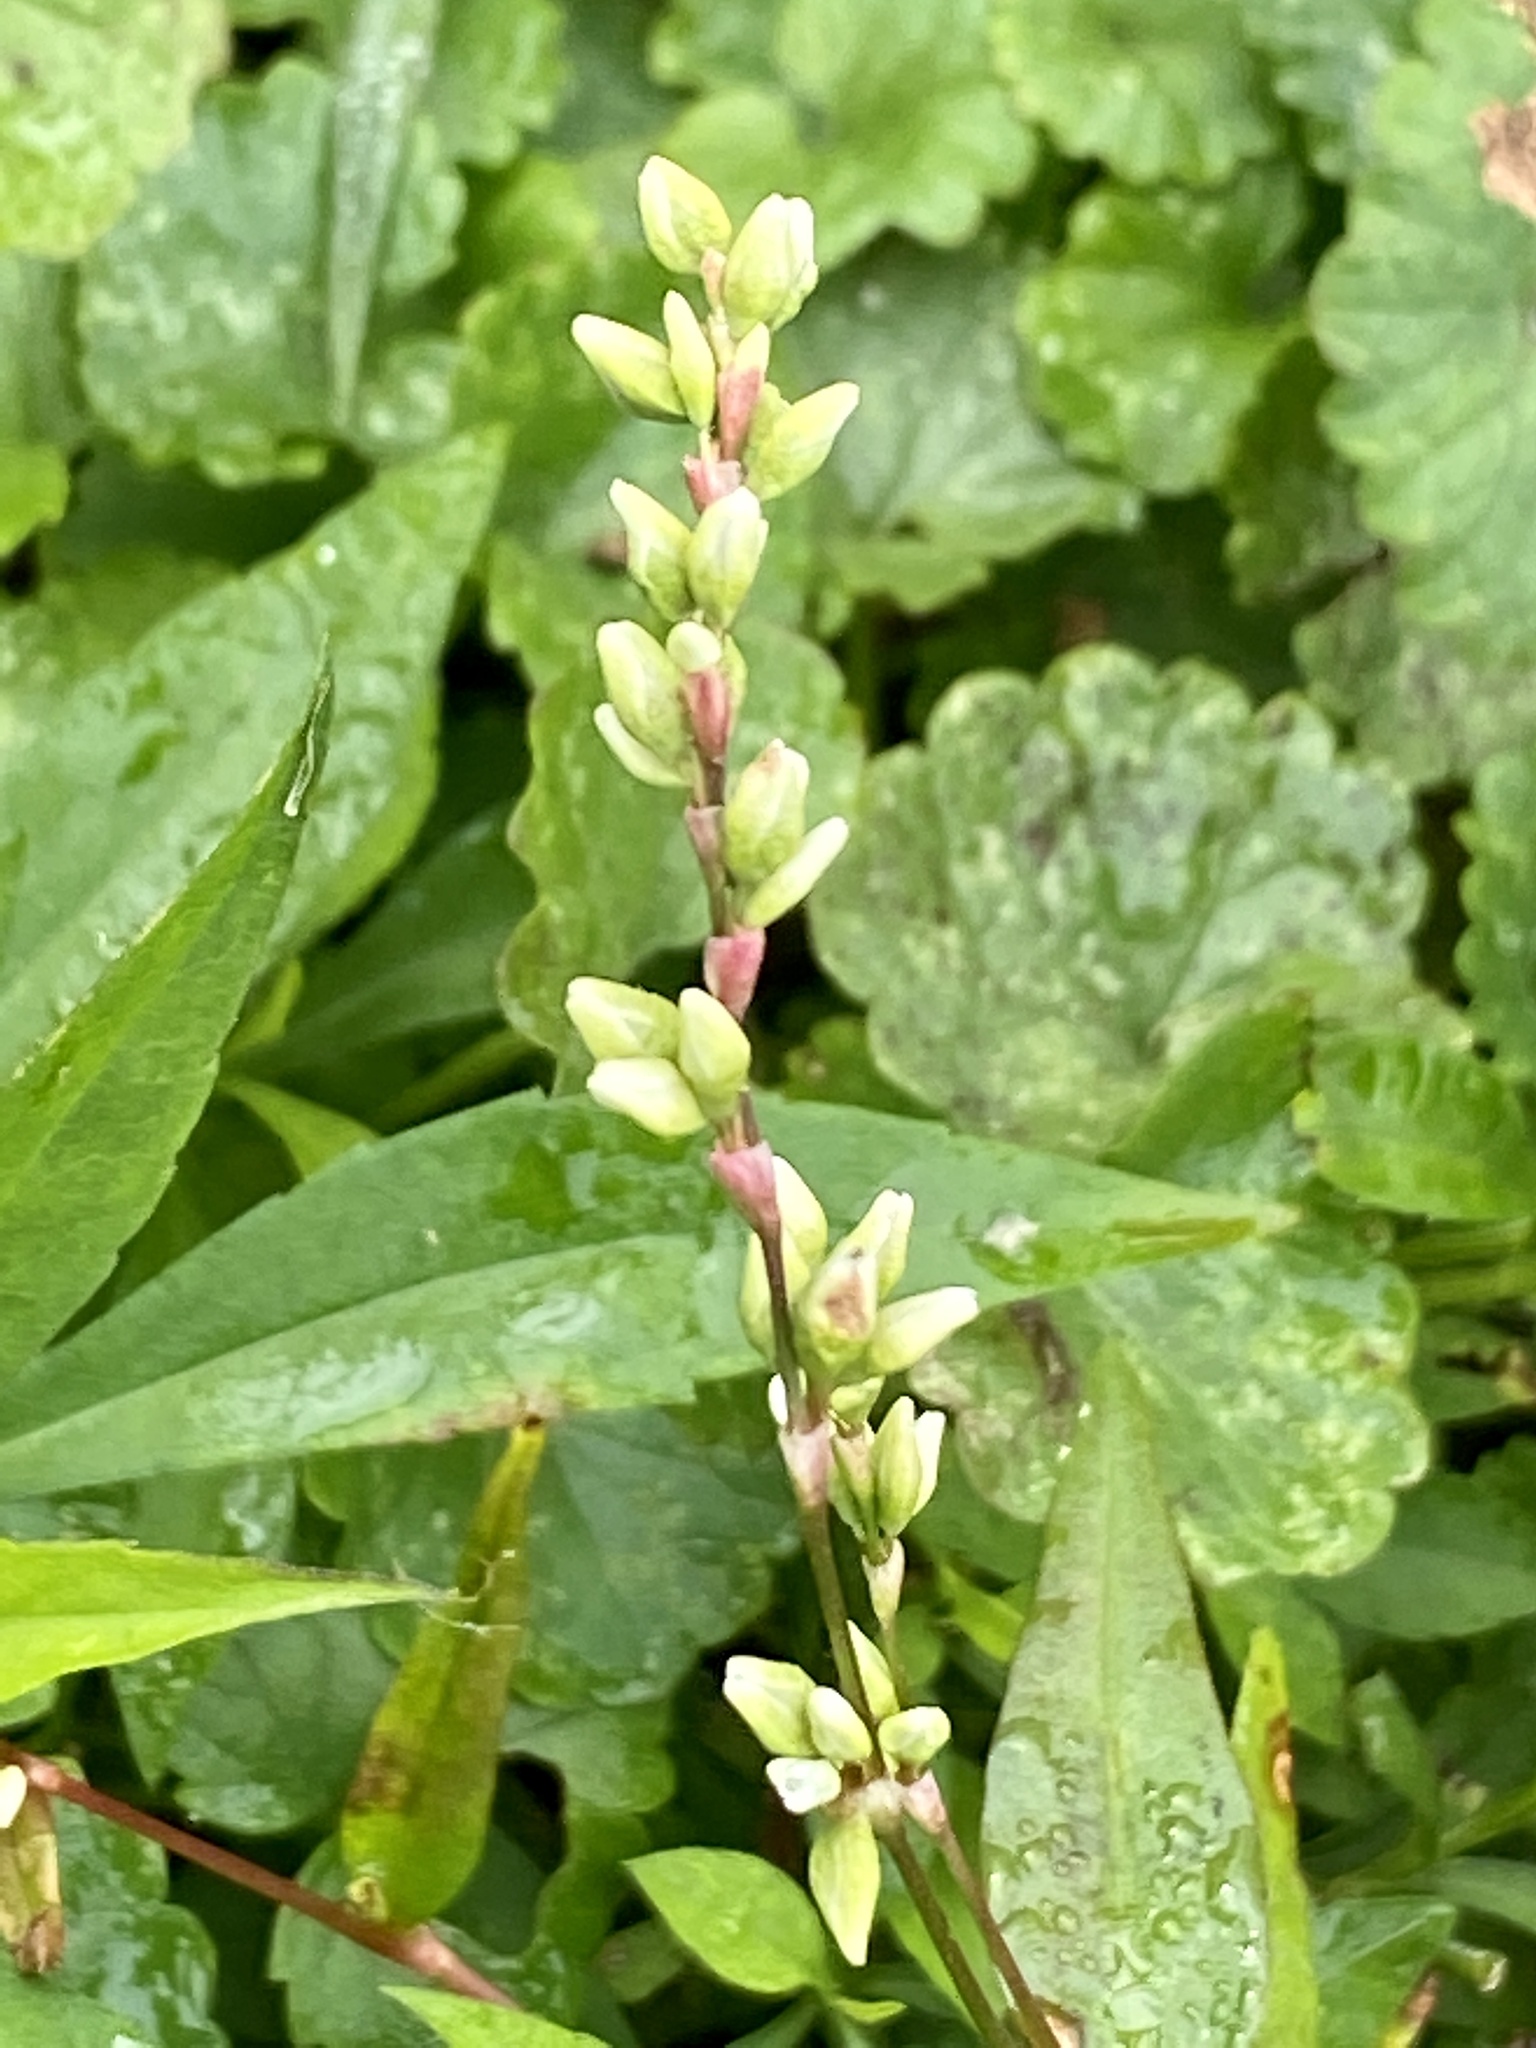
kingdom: Plantae
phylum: Tracheophyta
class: Magnoliopsida
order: Caryophyllales
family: Polygonaceae
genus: Persicaria
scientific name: Persicaria punctata
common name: Dotted smartweed
